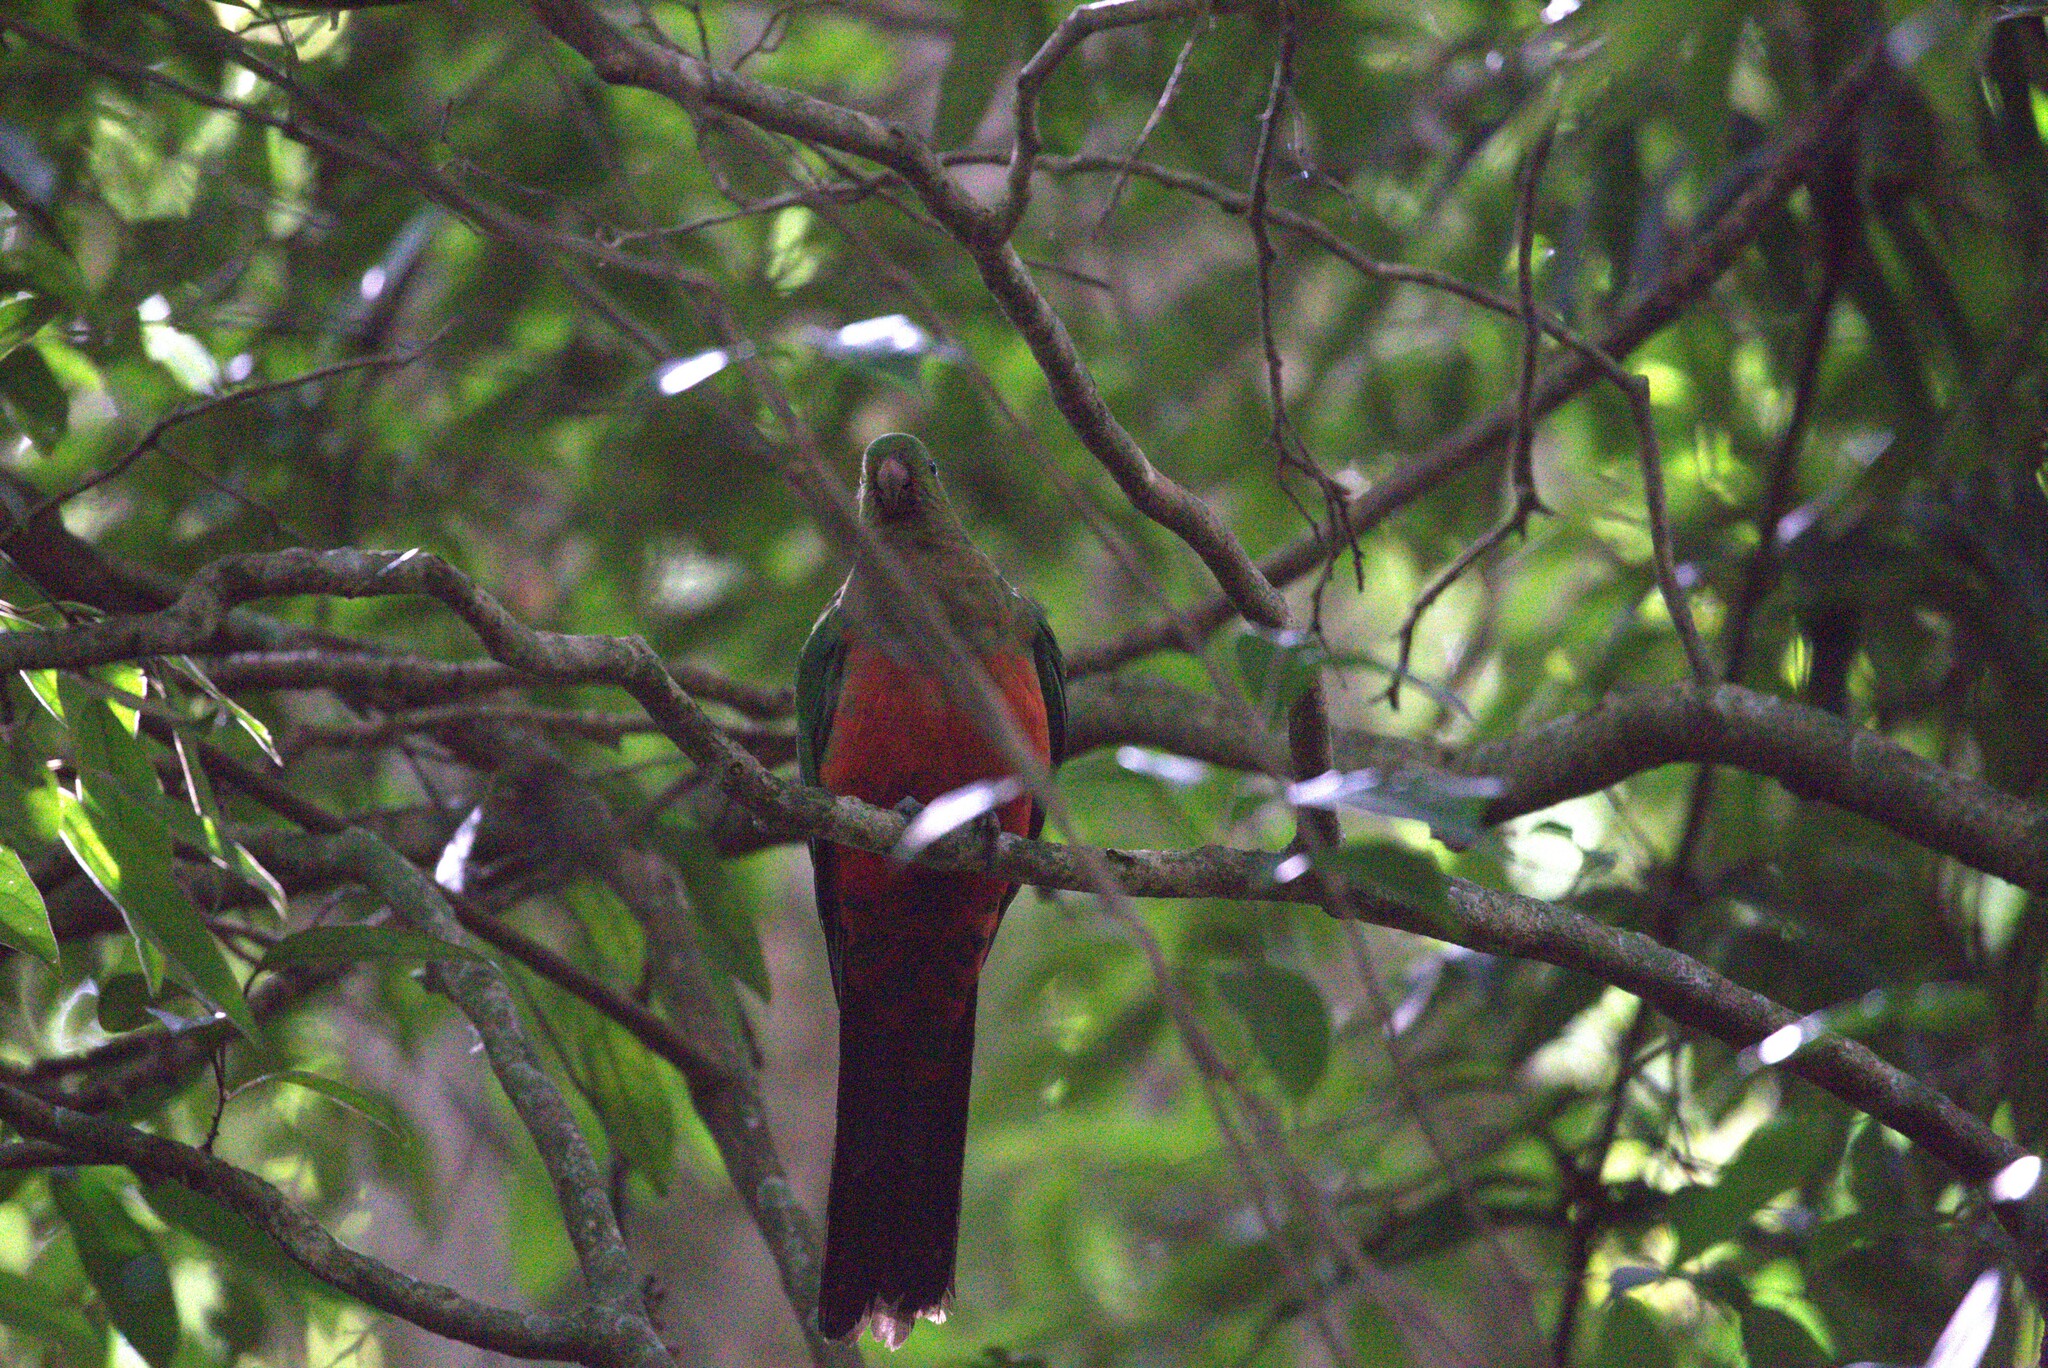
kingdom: Animalia
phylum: Chordata
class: Aves
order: Psittaciformes
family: Psittacidae
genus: Alisterus
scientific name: Alisterus scapularis
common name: Australian king parrot
